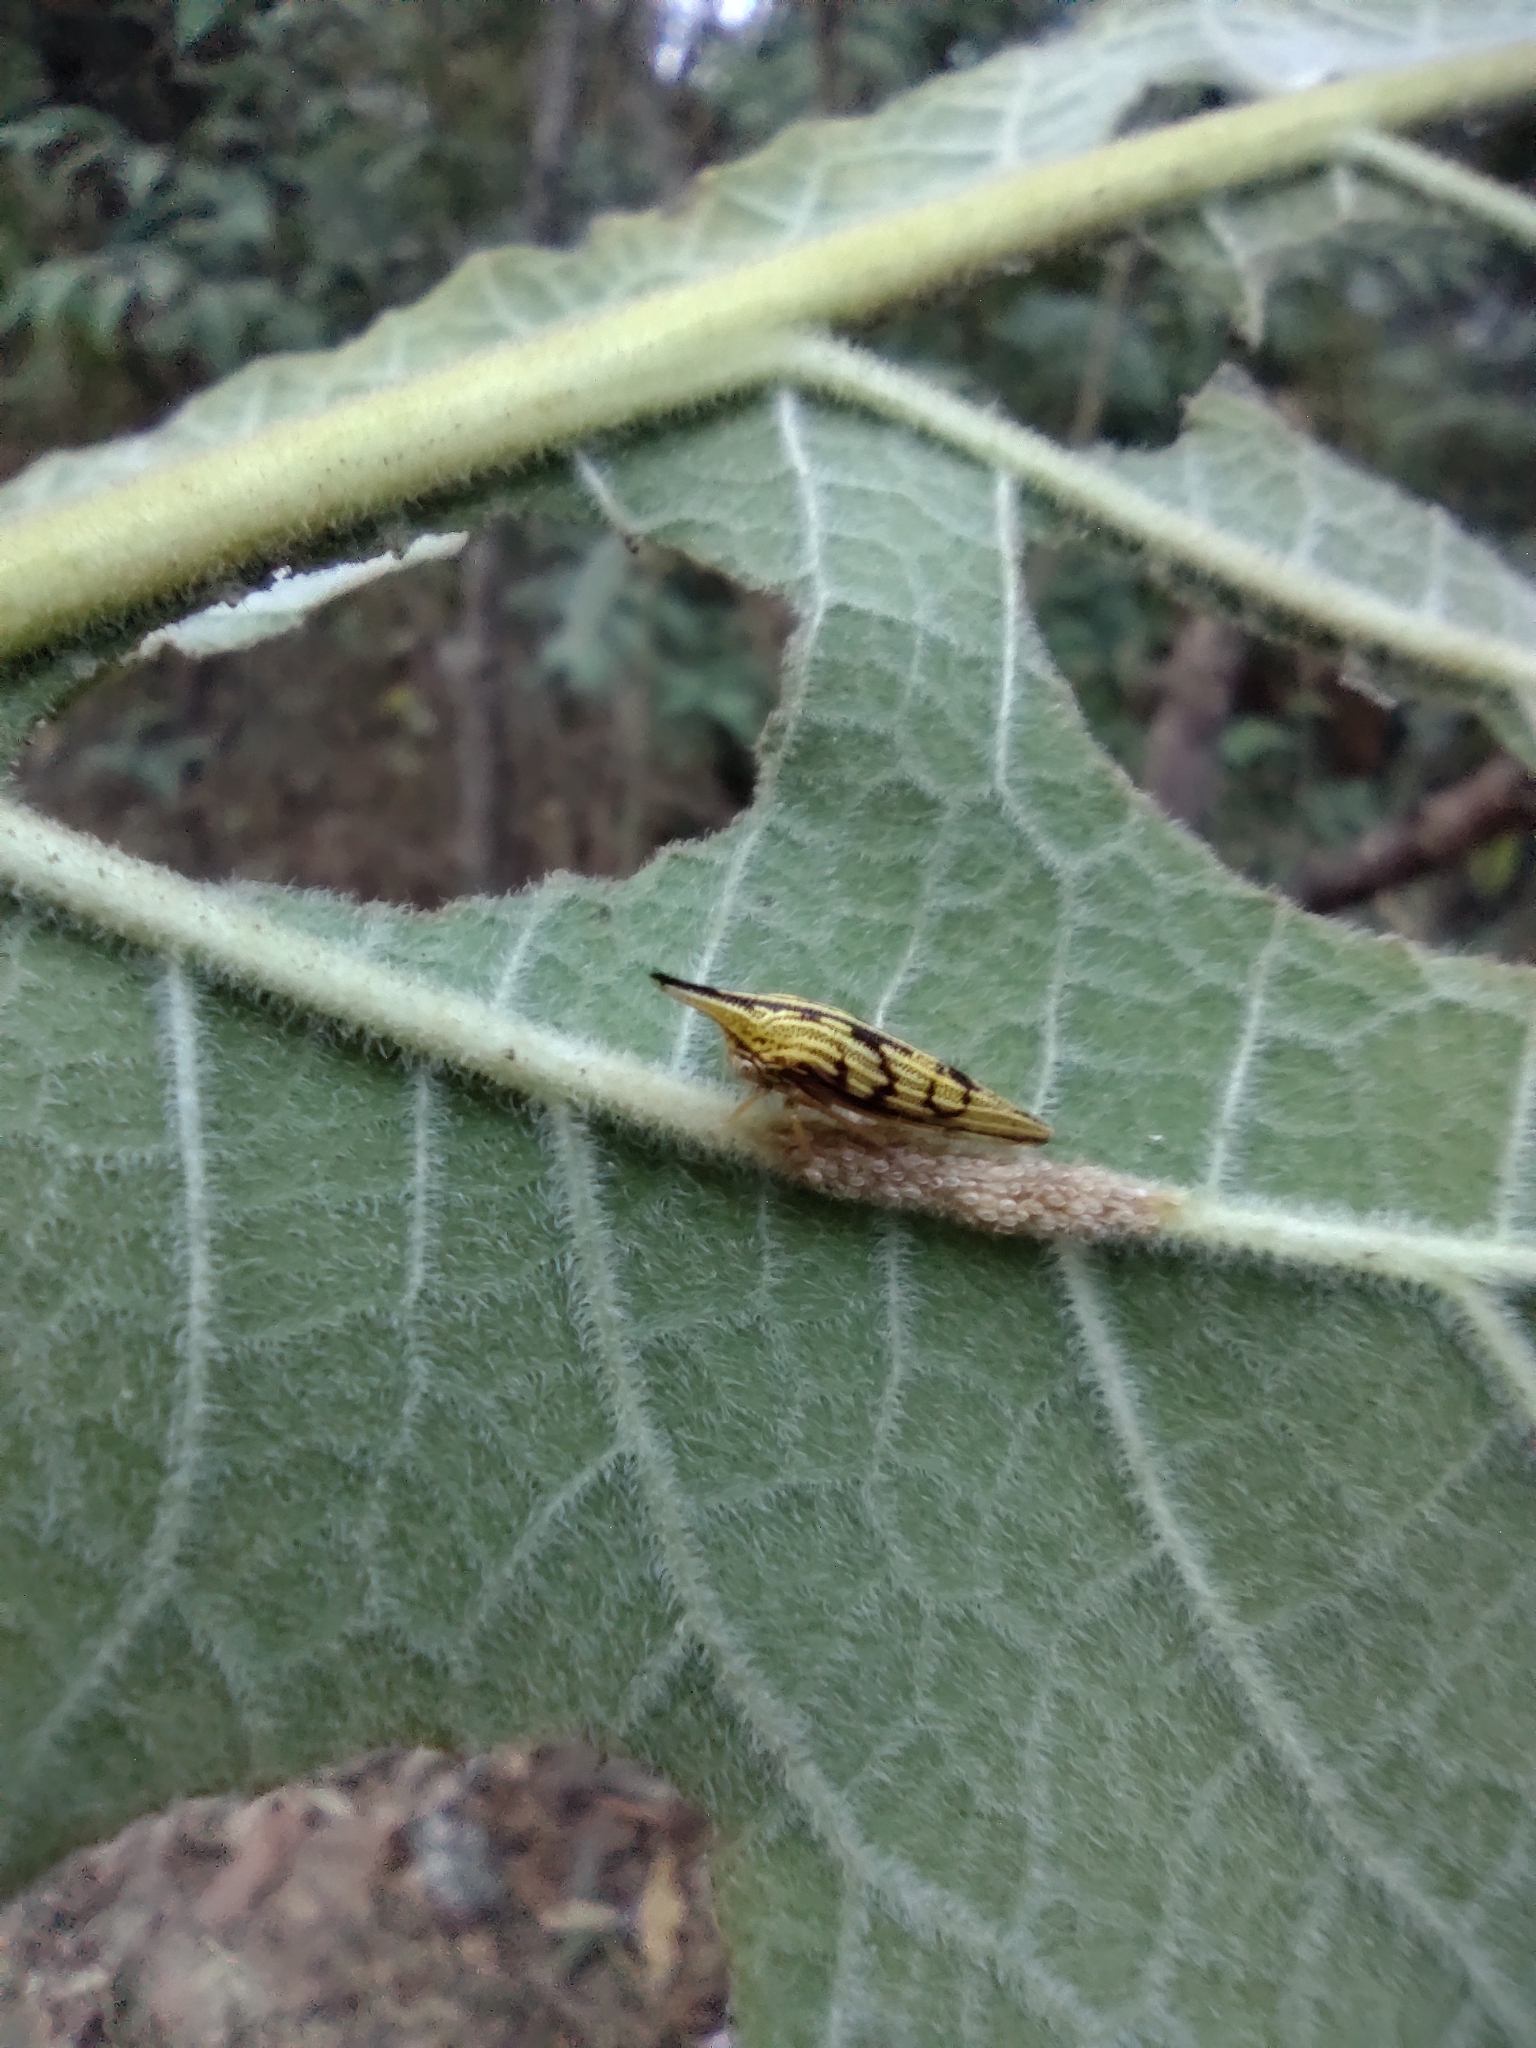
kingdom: Animalia
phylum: Arthropoda
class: Insecta
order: Hemiptera
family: Membracidae
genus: Polyglypta
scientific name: Polyglypta costata
